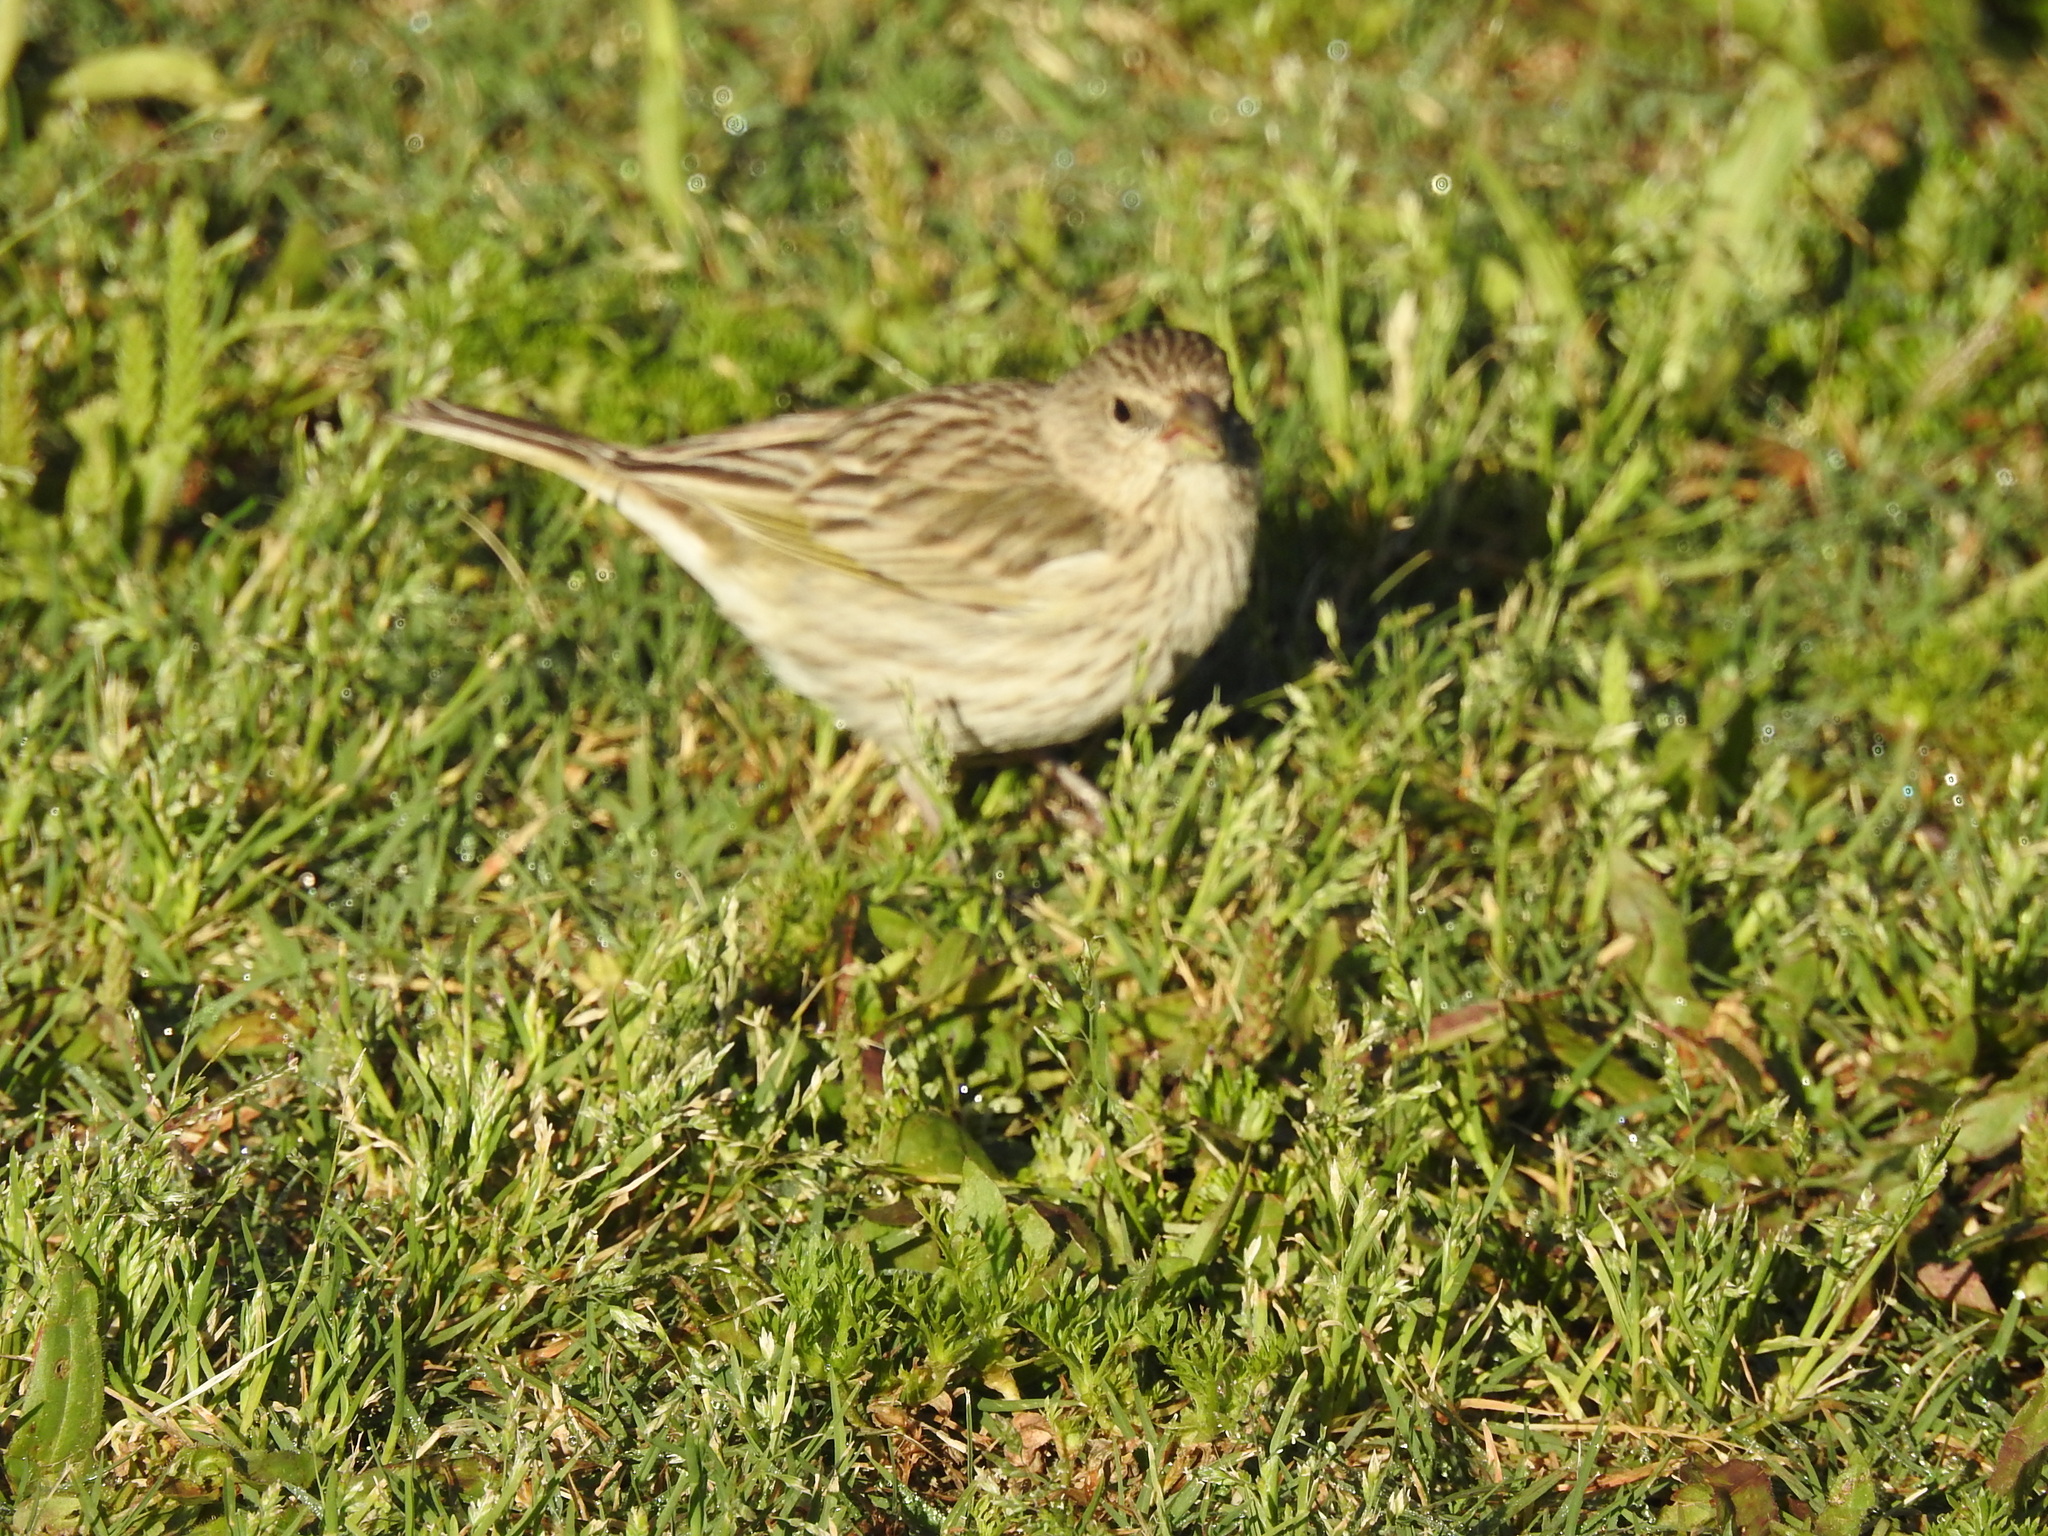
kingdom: Animalia
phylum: Chordata
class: Aves
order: Passeriformes
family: Thraupidae
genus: Sicalis
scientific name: Sicalis flaveola
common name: Saffron finch
